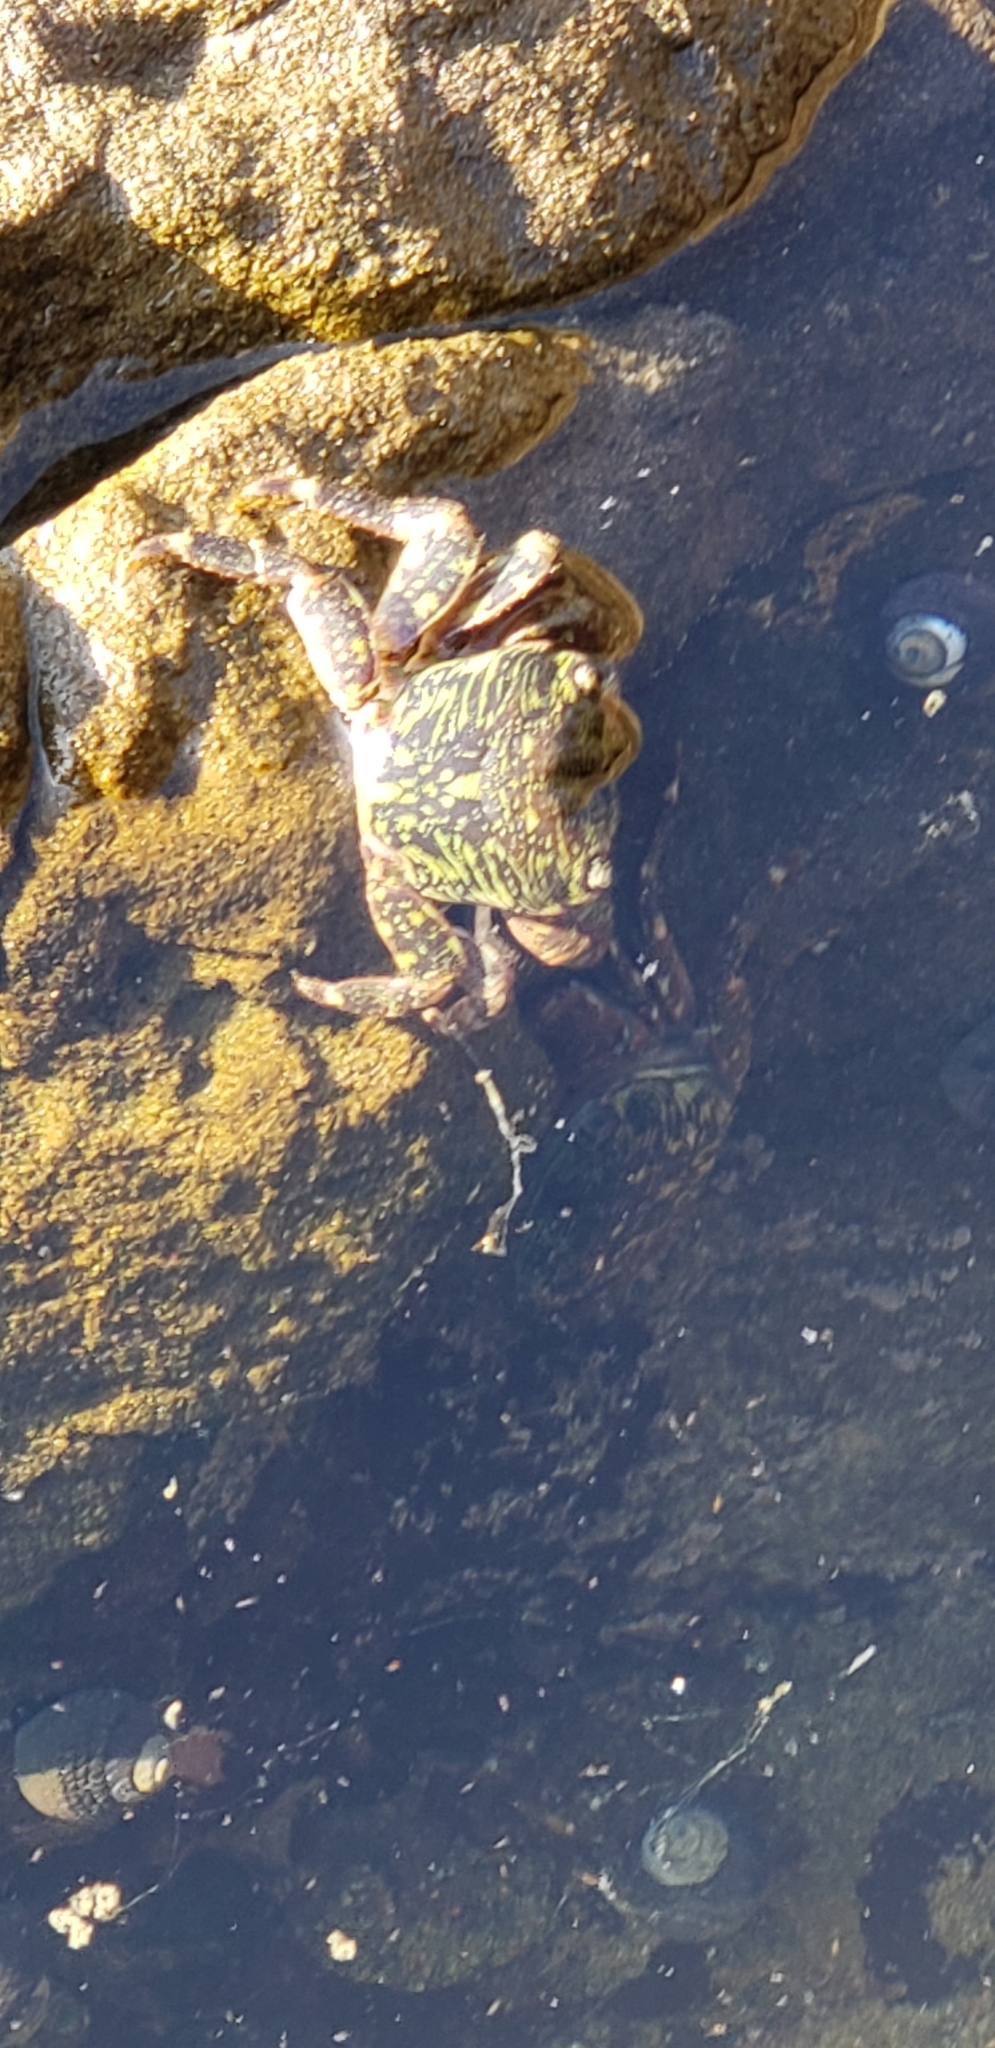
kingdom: Animalia
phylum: Arthropoda
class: Malacostraca
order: Decapoda
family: Grapsidae
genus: Pachygrapsus
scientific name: Pachygrapsus crassipes
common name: Striped shore crab
